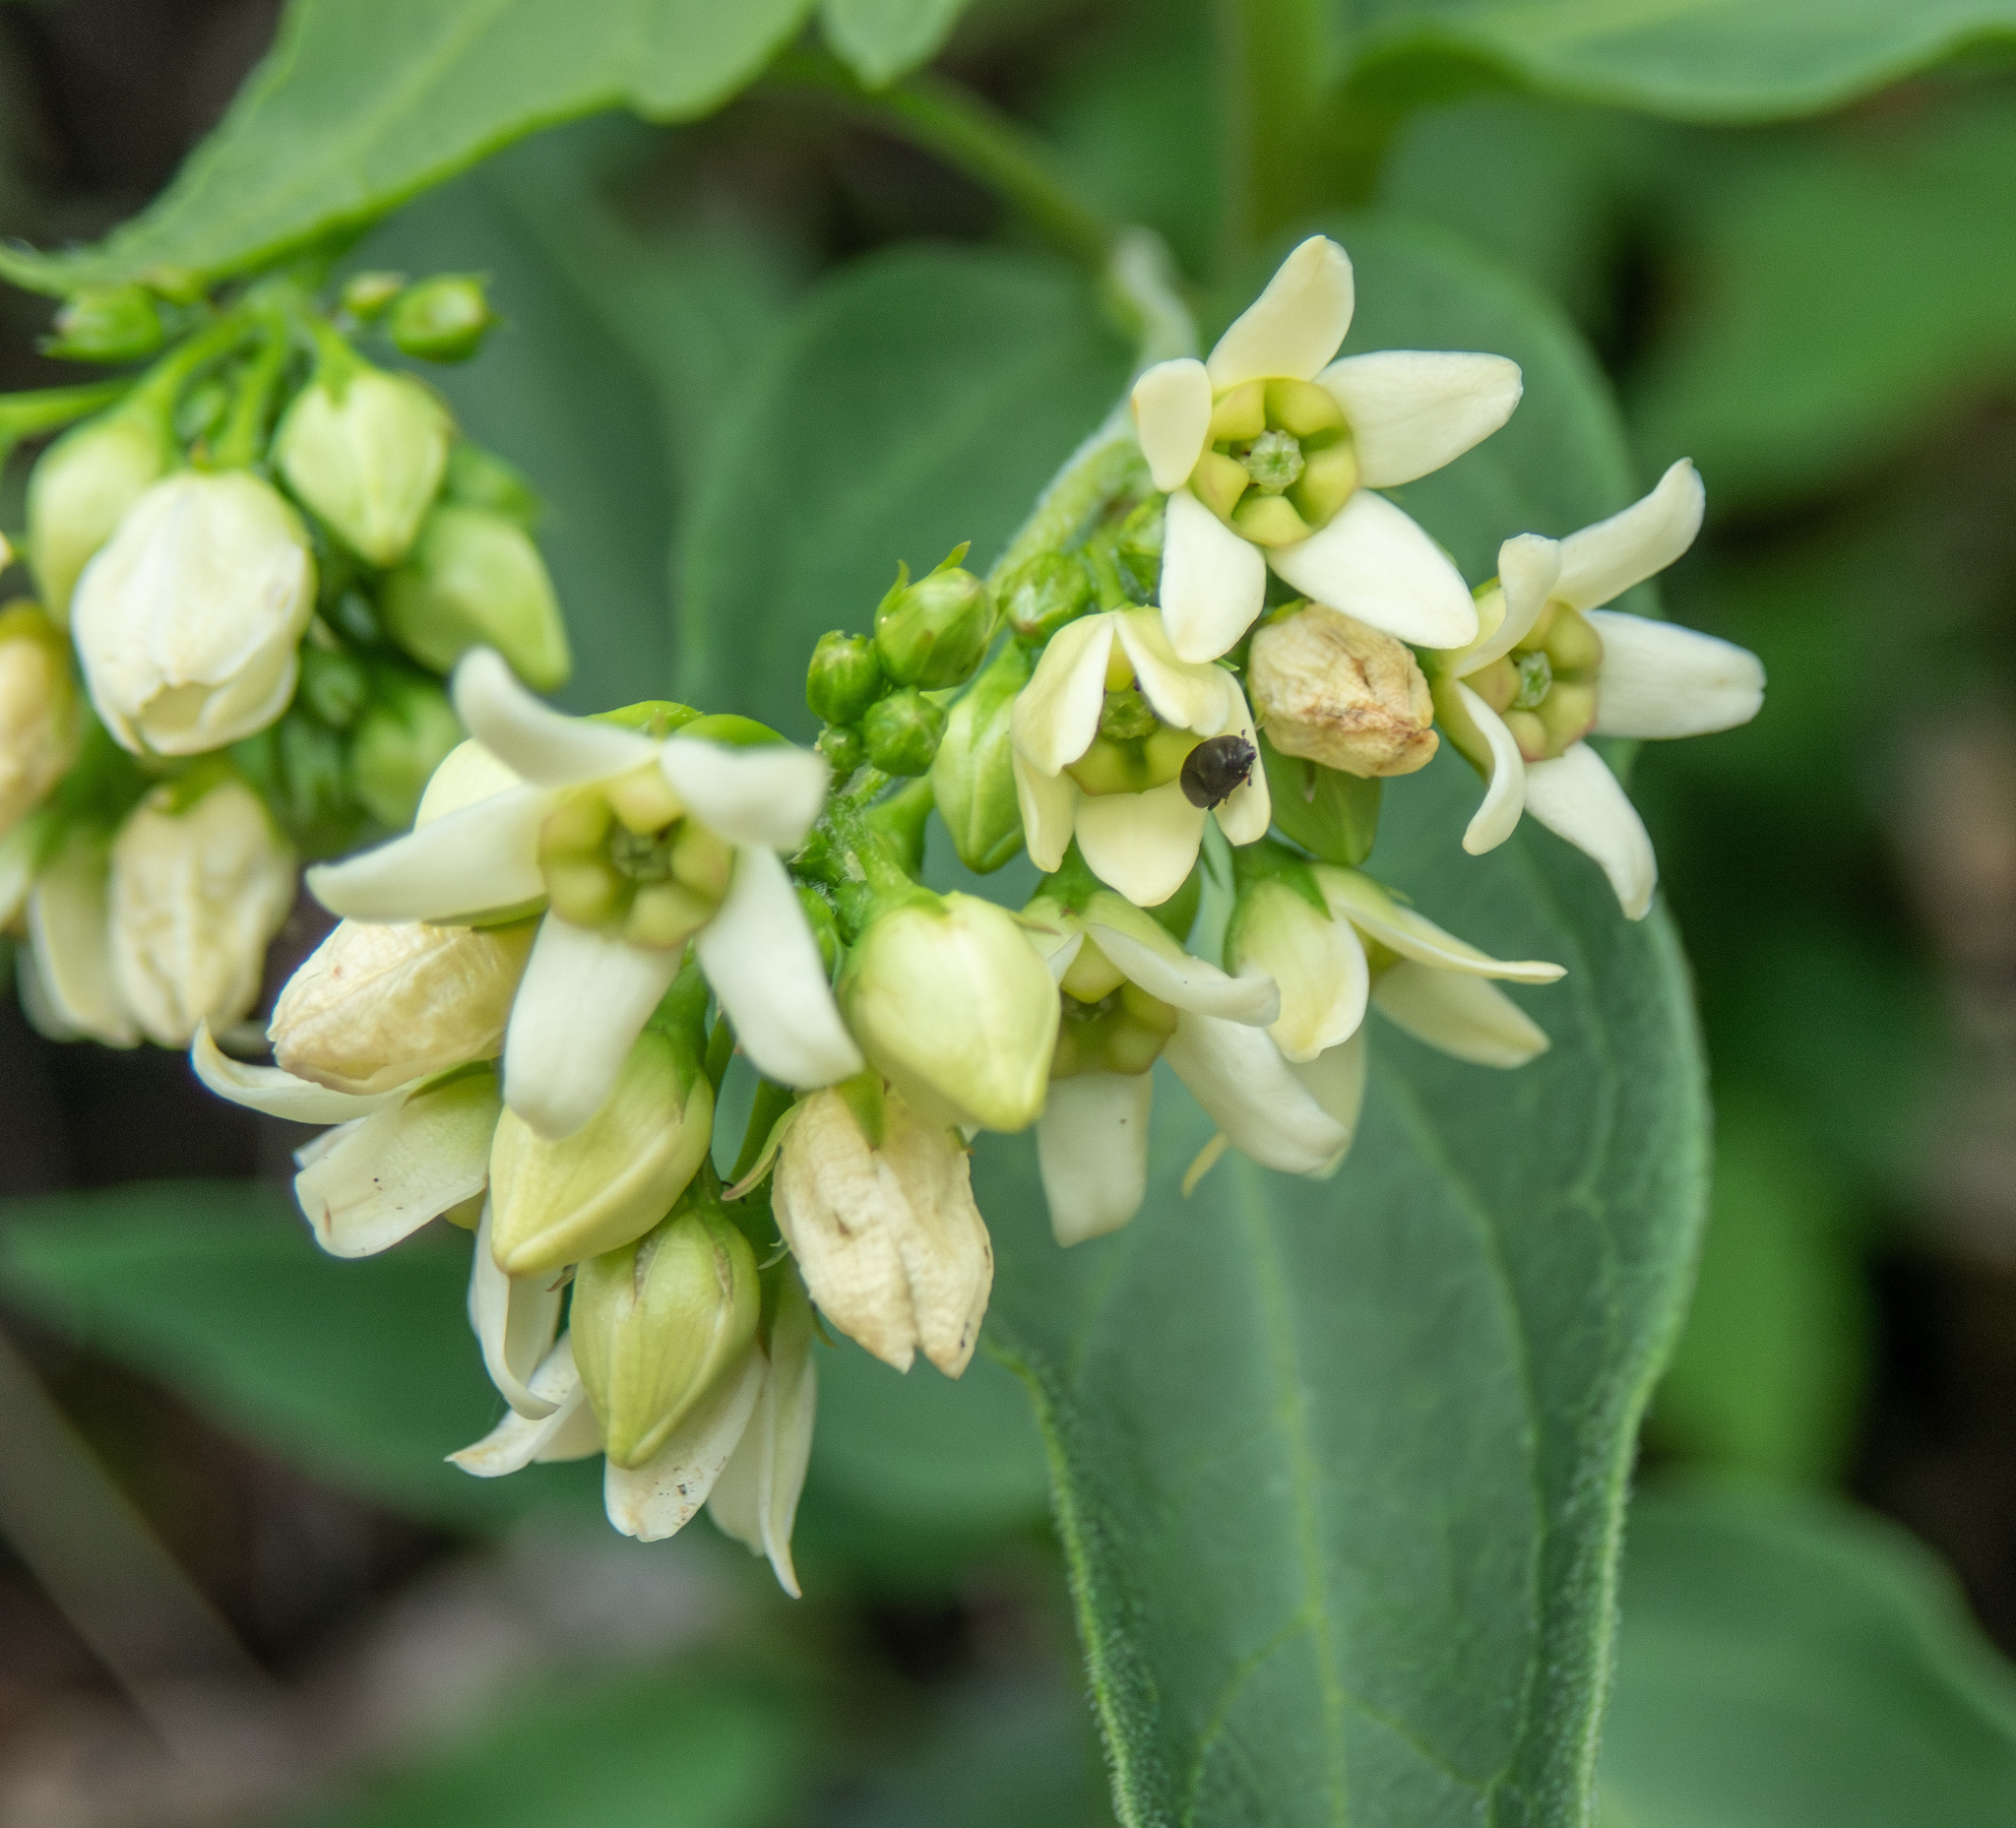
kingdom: Plantae
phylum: Tracheophyta
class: Magnoliopsida
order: Gentianales
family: Apocynaceae
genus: Vincetoxicum
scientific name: Vincetoxicum hirundinaria
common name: White swallowwort
